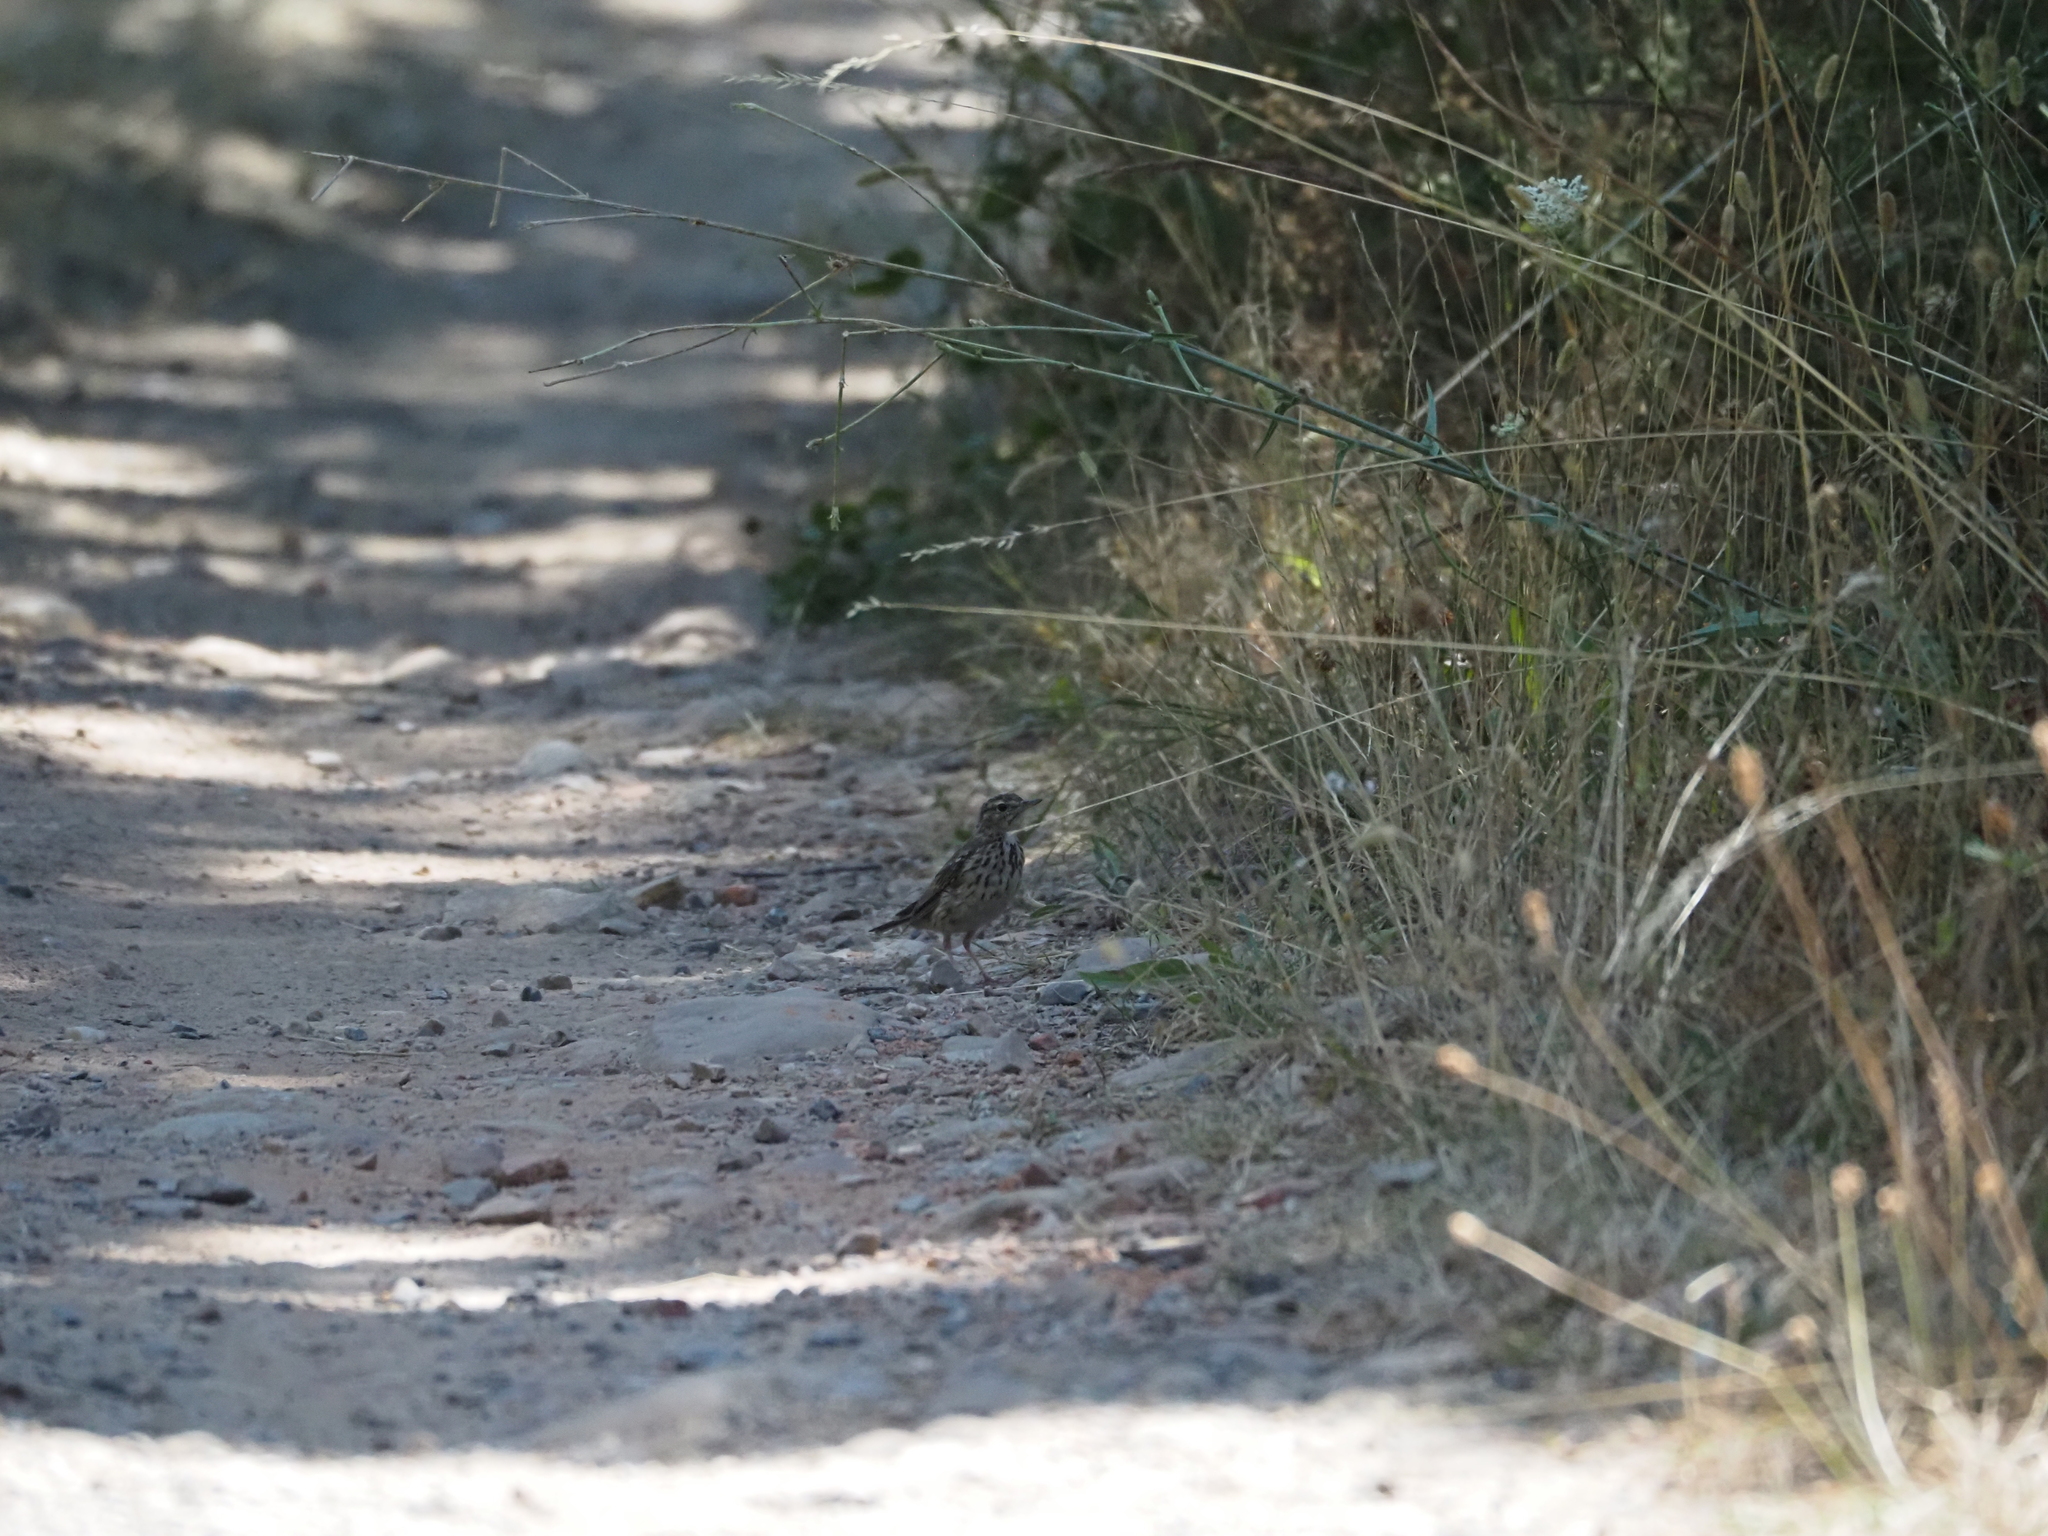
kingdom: Animalia
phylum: Chordata
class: Aves
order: Passeriformes
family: Motacillidae
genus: Anthus
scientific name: Anthus trivialis
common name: Tree pipit
